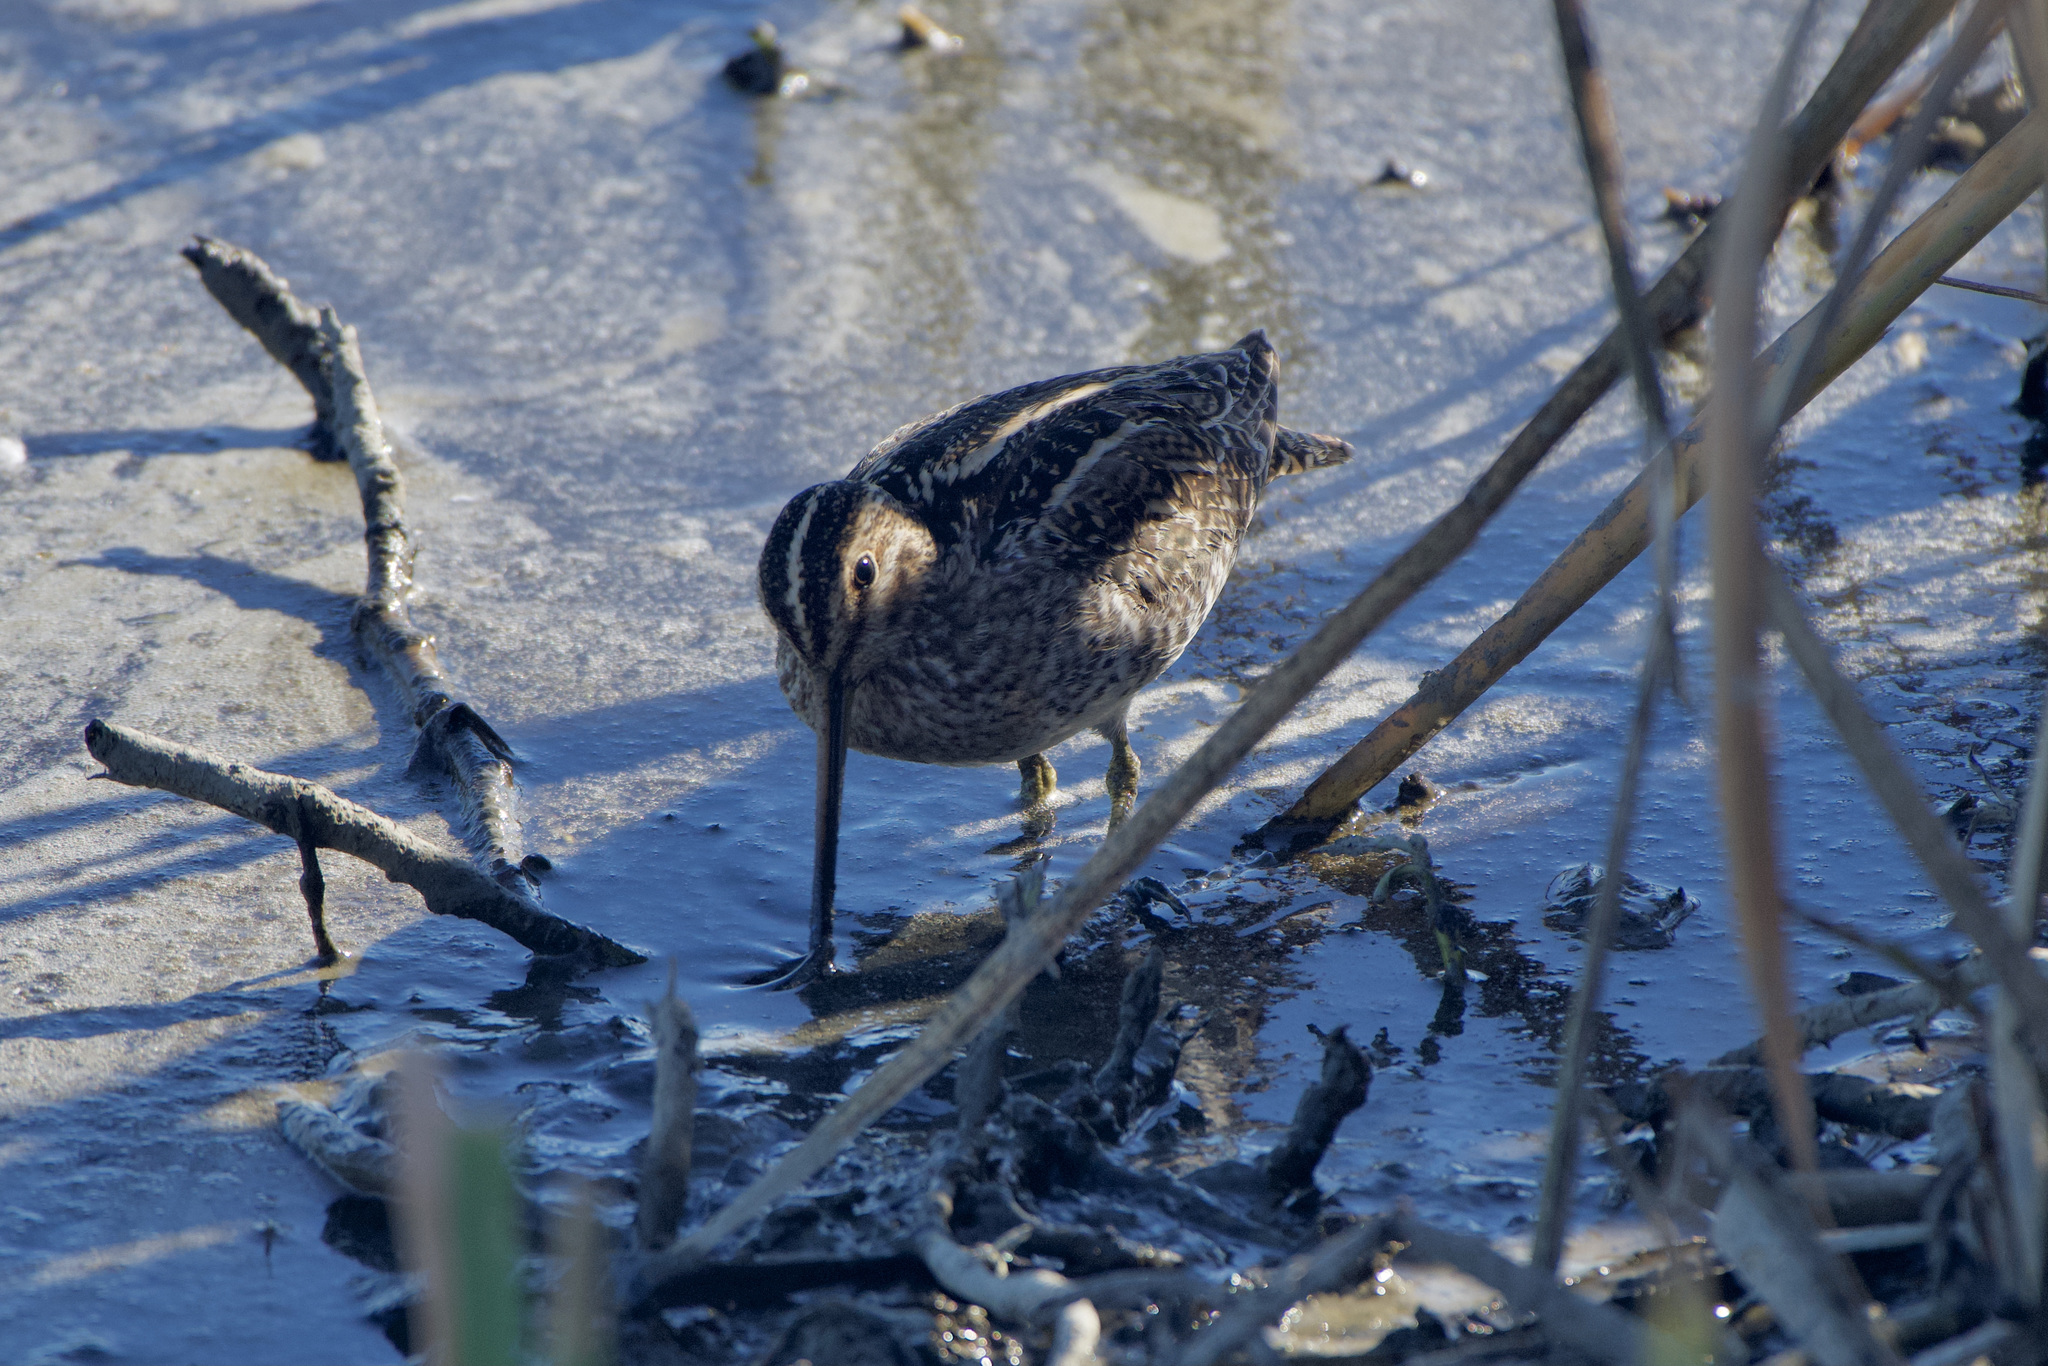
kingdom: Animalia
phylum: Chordata
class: Aves
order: Charadriiformes
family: Scolopacidae
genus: Gallinago
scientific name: Gallinago delicata
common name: Wilson's snipe
